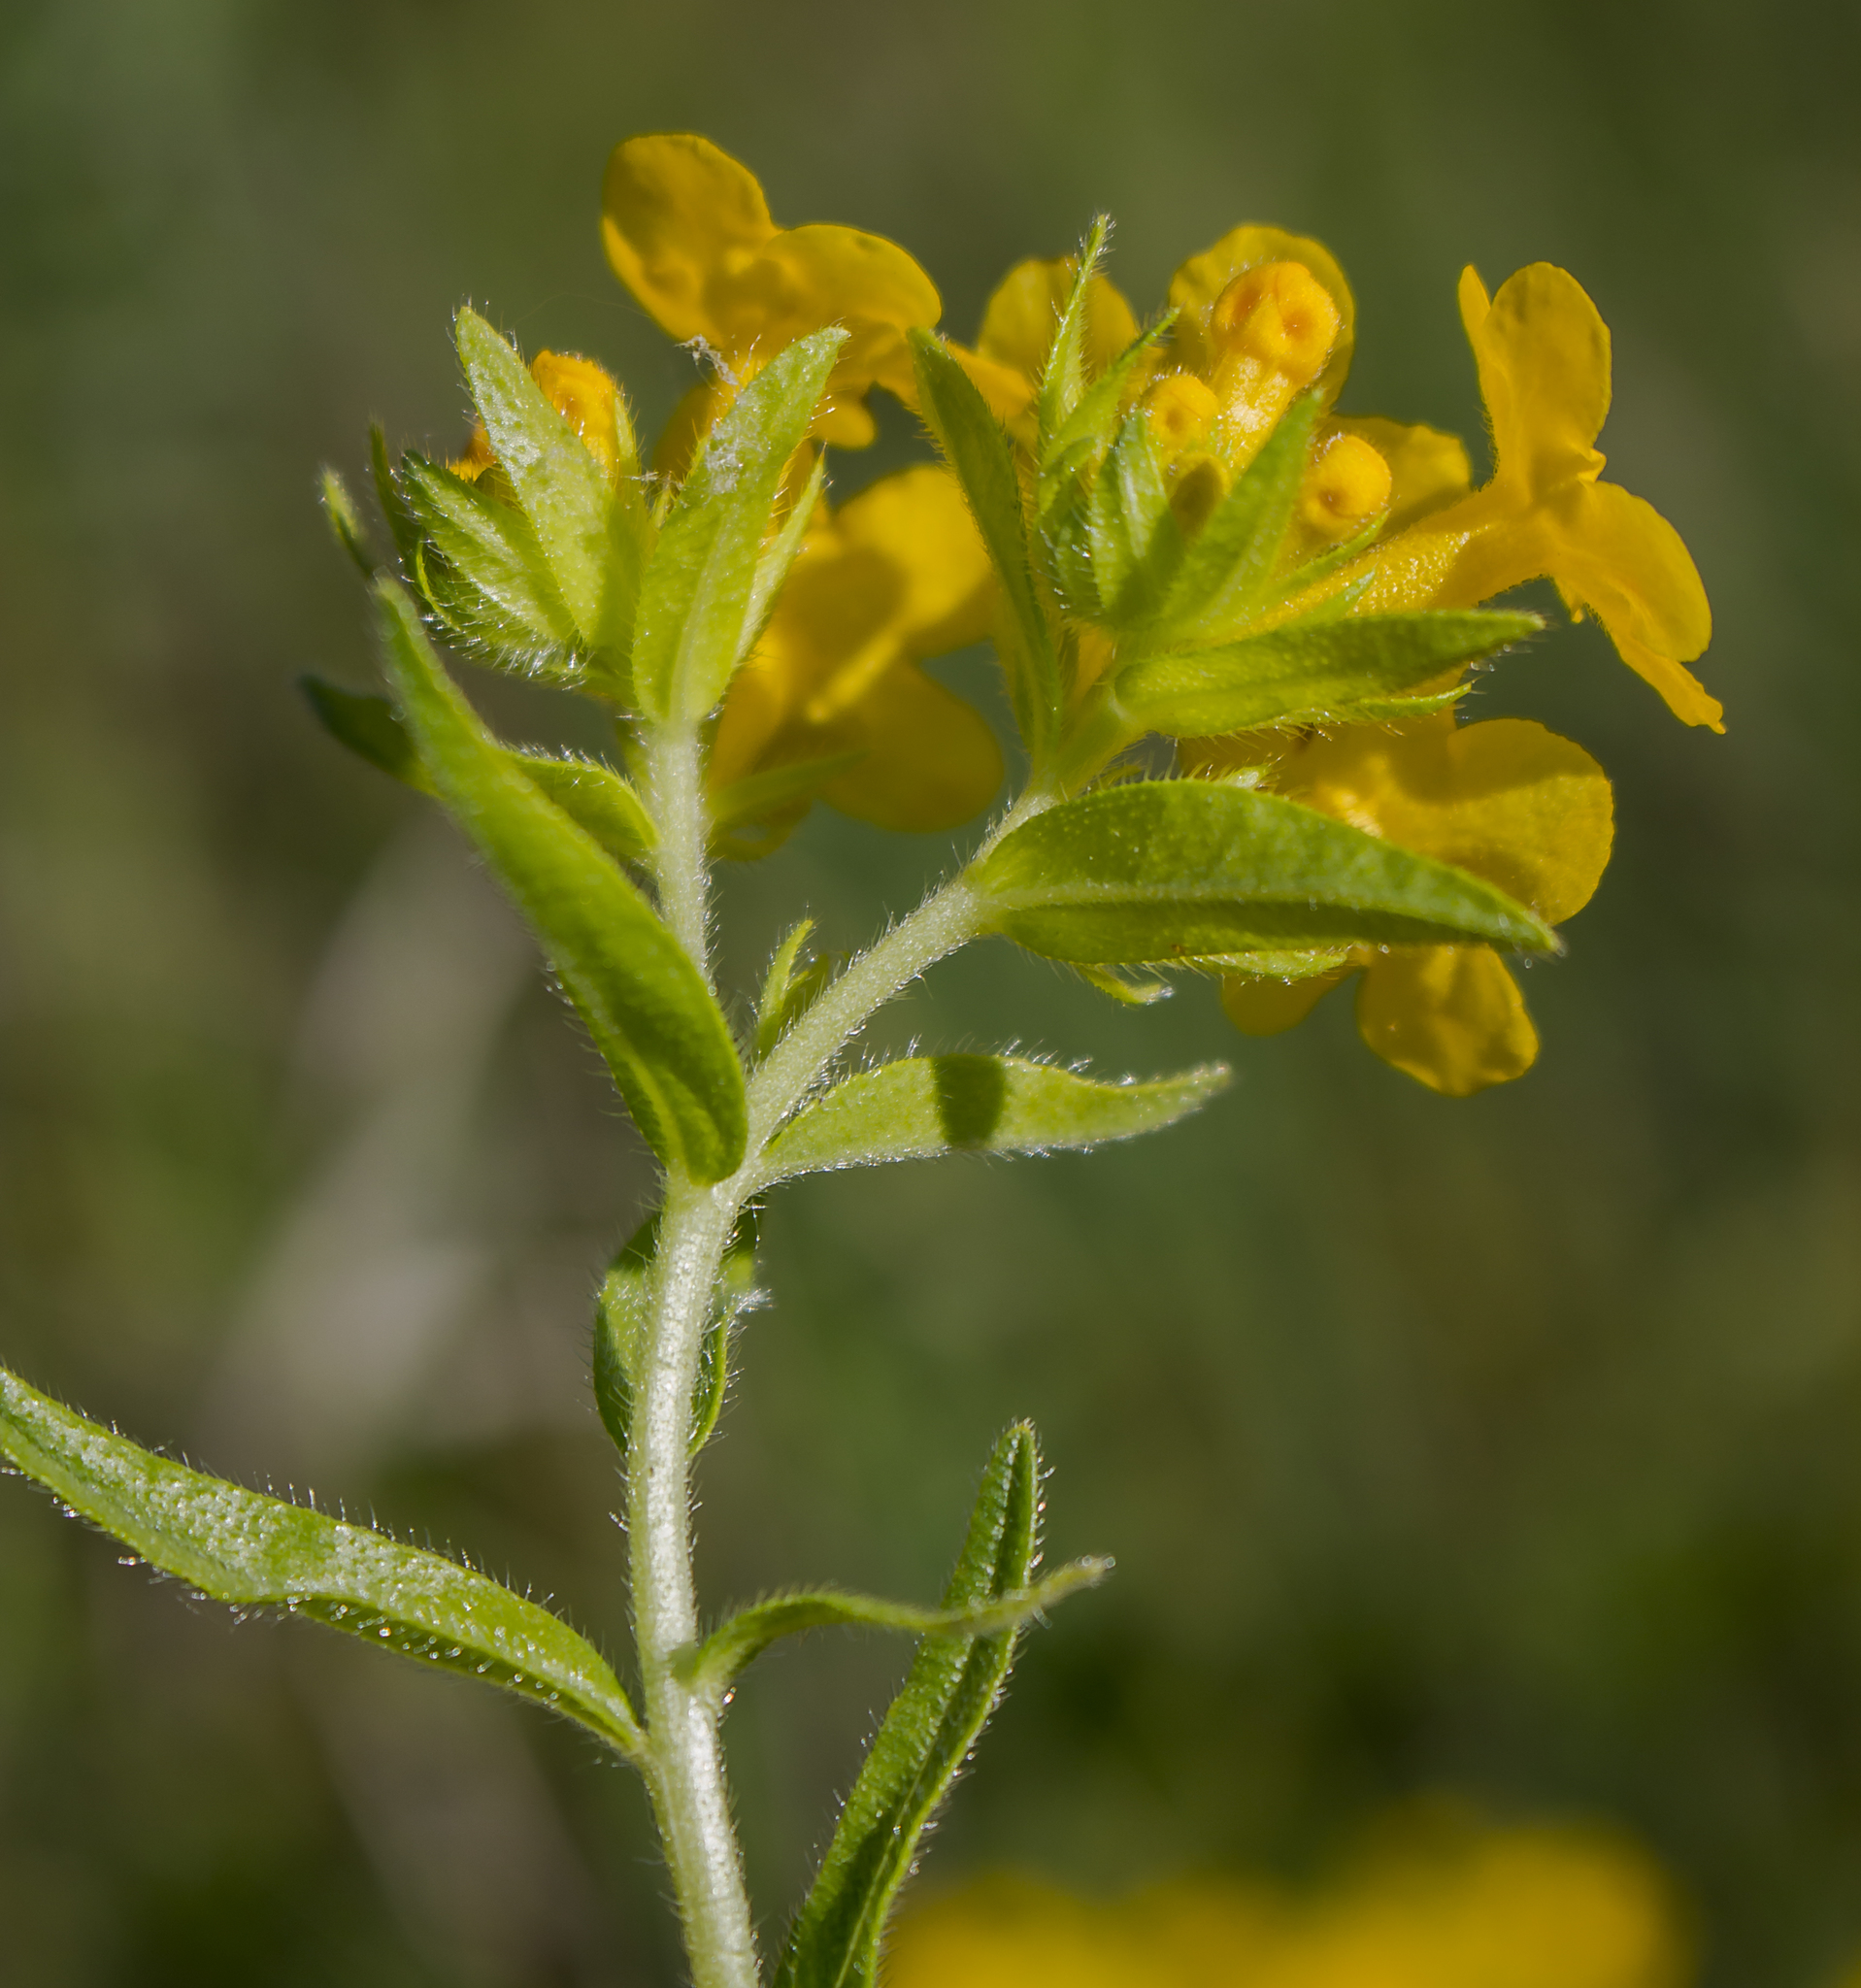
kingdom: Plantae
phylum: Tracheophyta
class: Magnoliopsida
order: Boraginales
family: Boraginaceae
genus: Lithospermum
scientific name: Lithospermum caroliniense
